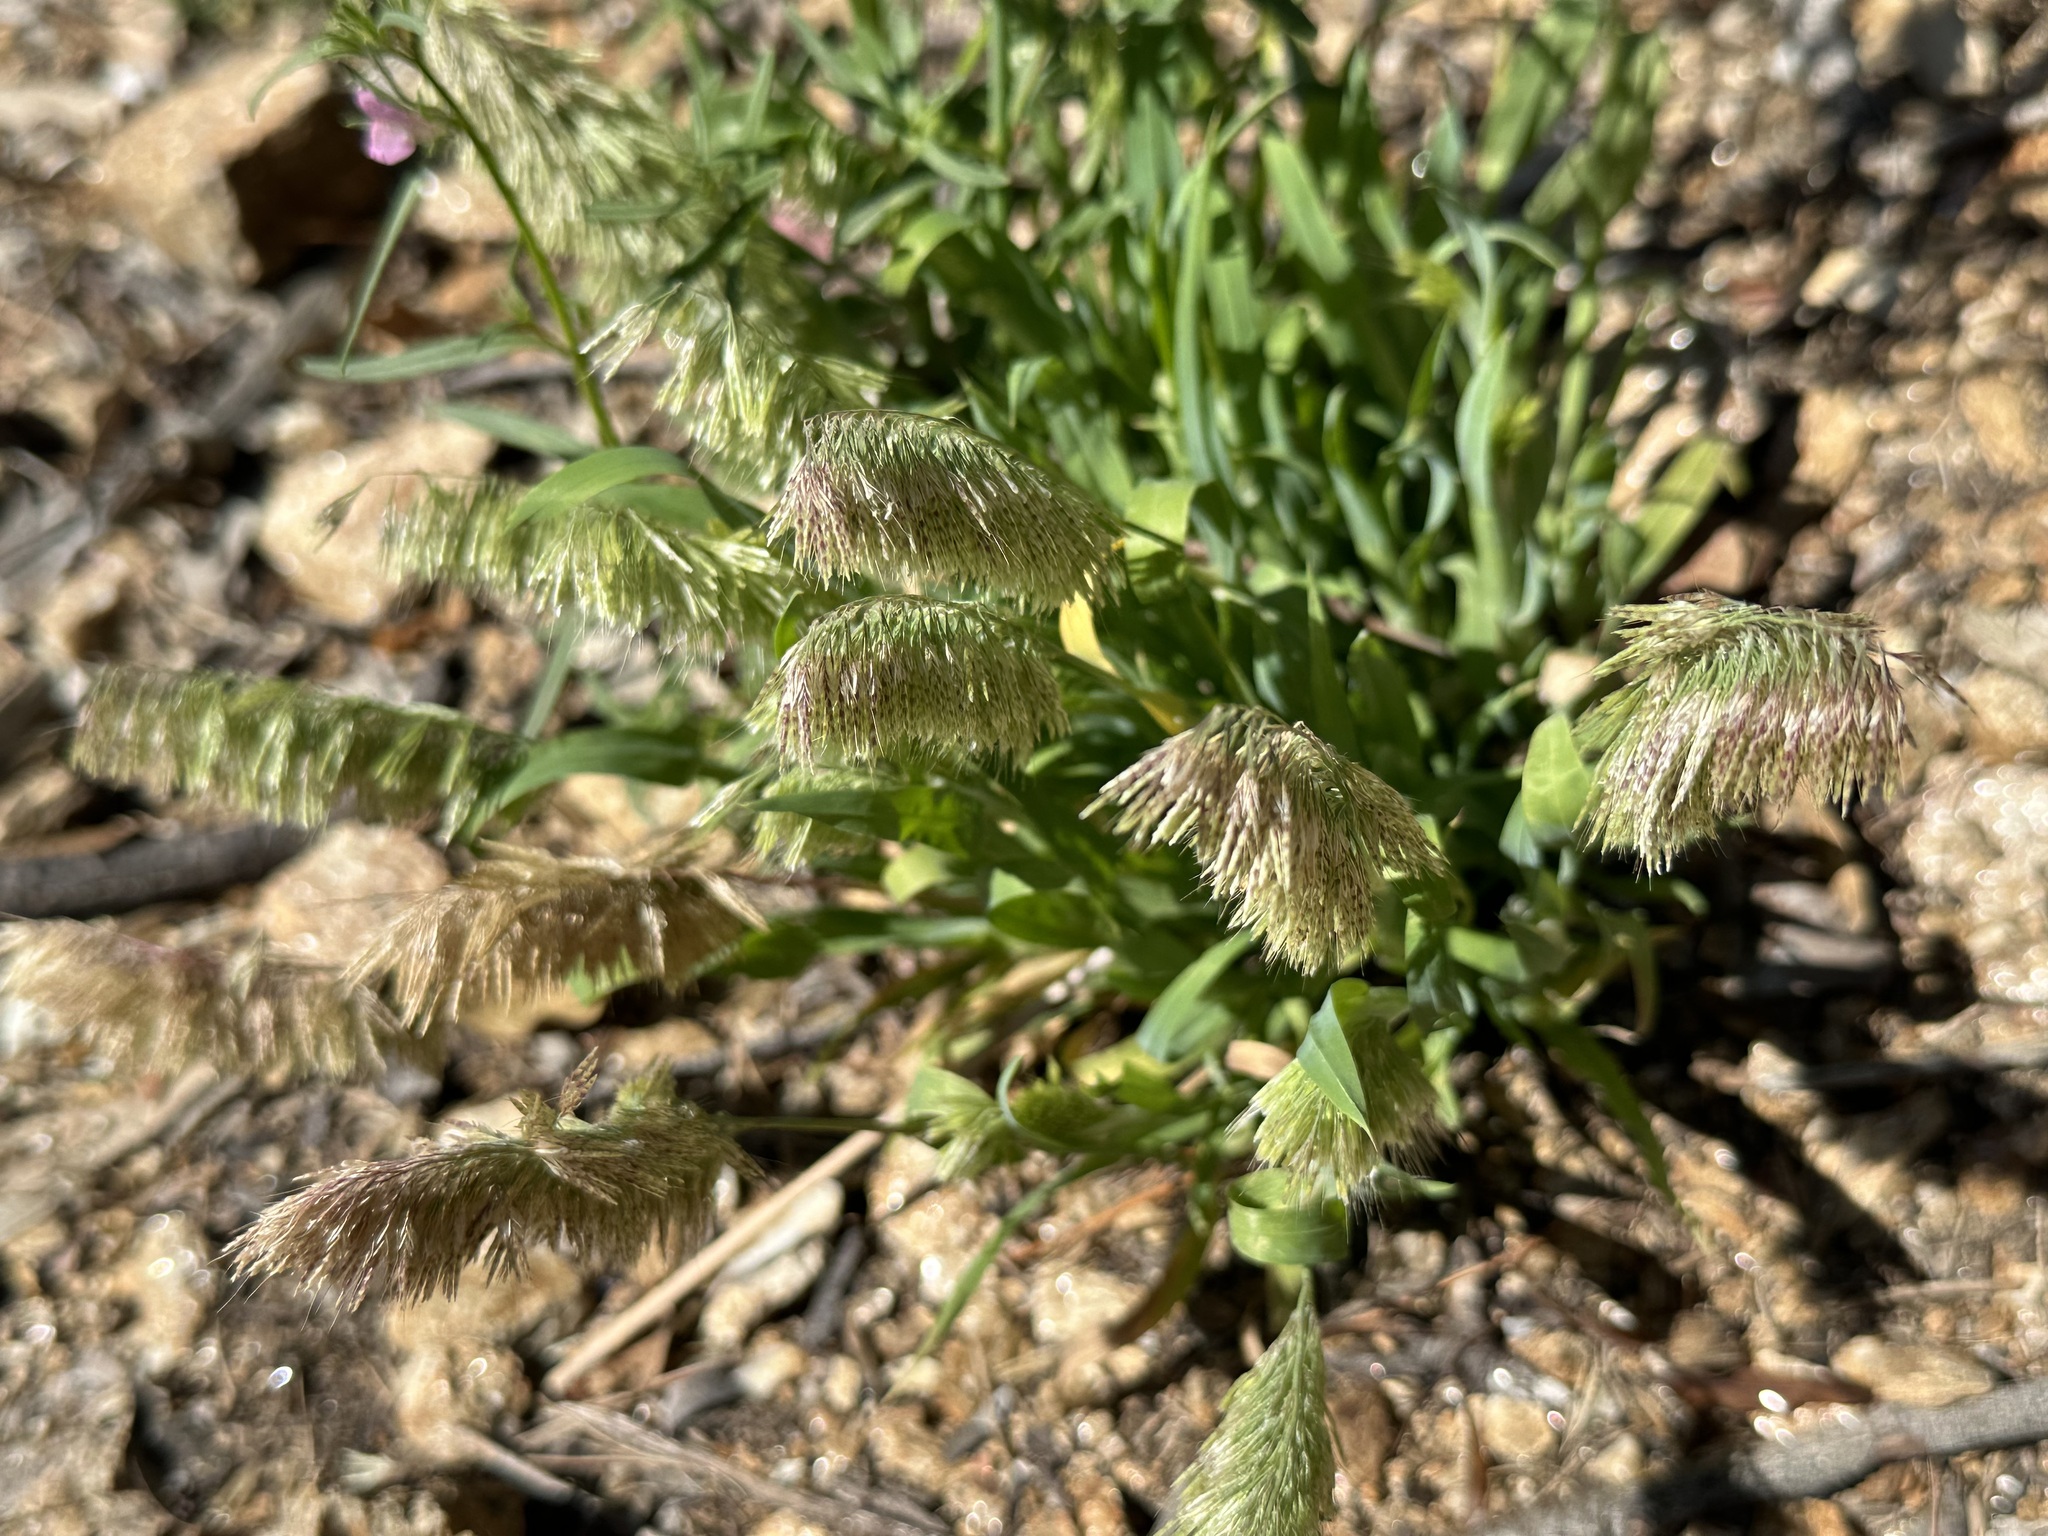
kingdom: Plantae
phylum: Tracheophyta
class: Liliopsida
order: Poales
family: Poaceae
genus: Lamarckia
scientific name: Lamarckia aurea
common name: Golden dog's-tail
